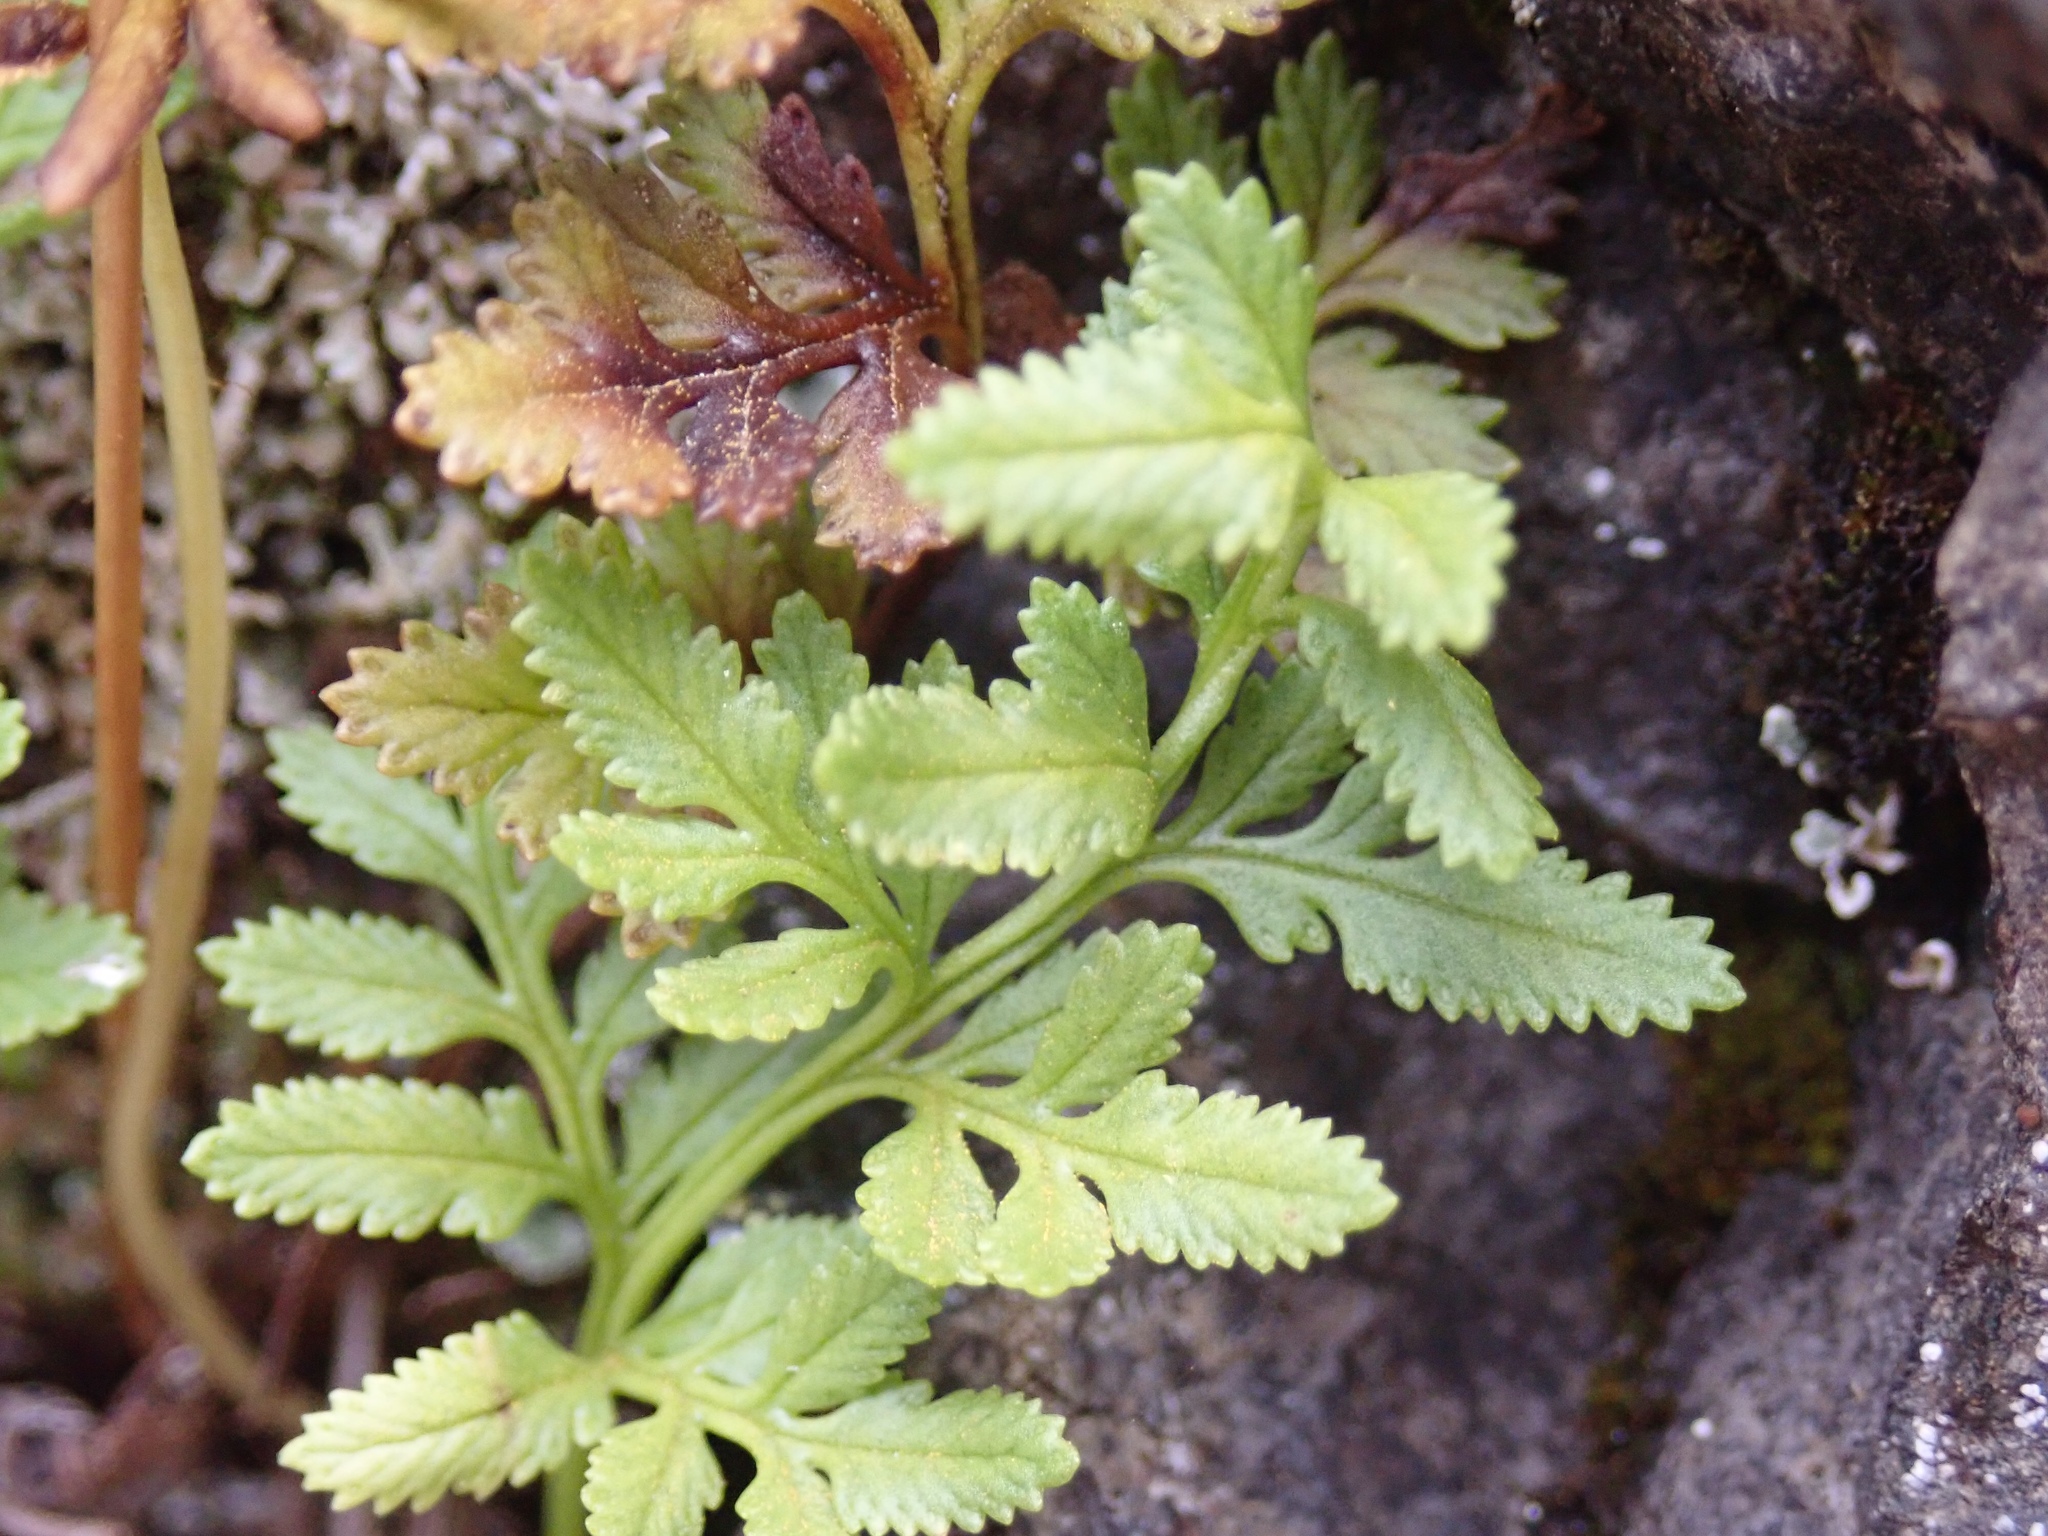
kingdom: Plantae
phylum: Tracheophyta
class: Polypodiopsida
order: Polypodiales
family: Pteridaceae
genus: Cryptogramma
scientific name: Cryptogramma acrostichoides
